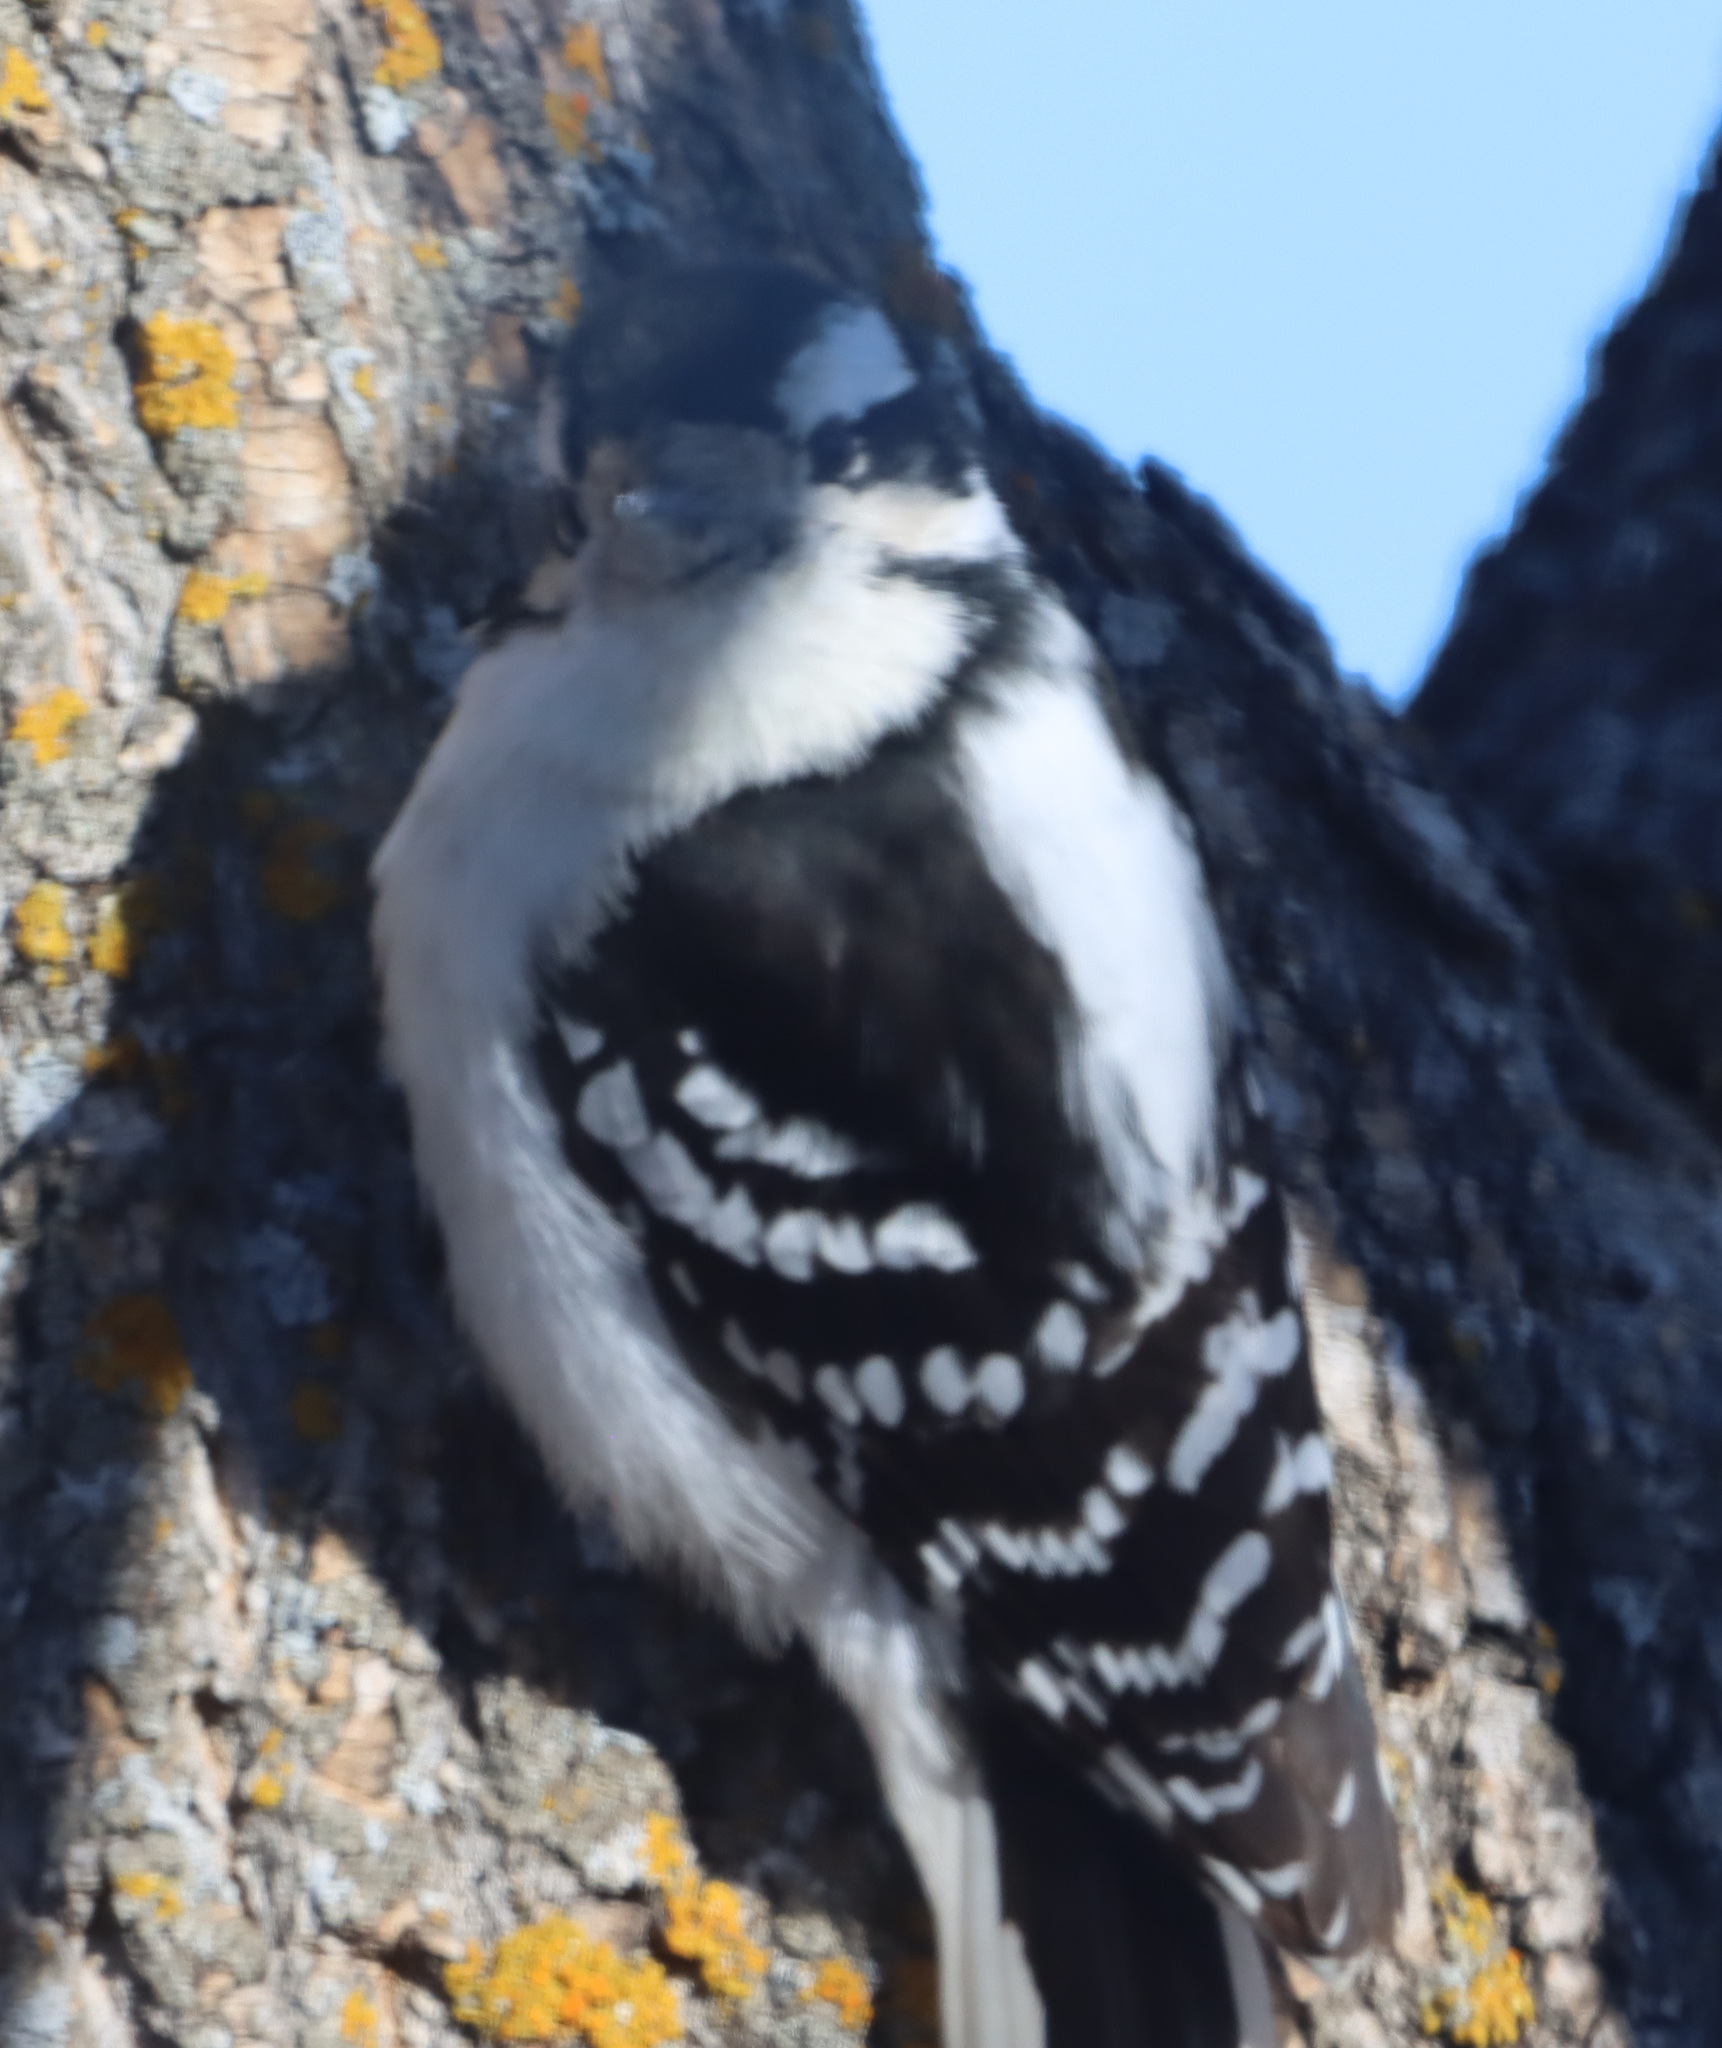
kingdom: Animalia
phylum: Chordata
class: Aves
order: Piciformes
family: Picidae
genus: Dryobates
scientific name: Dryobates pubescens
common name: Downy woodpecker
